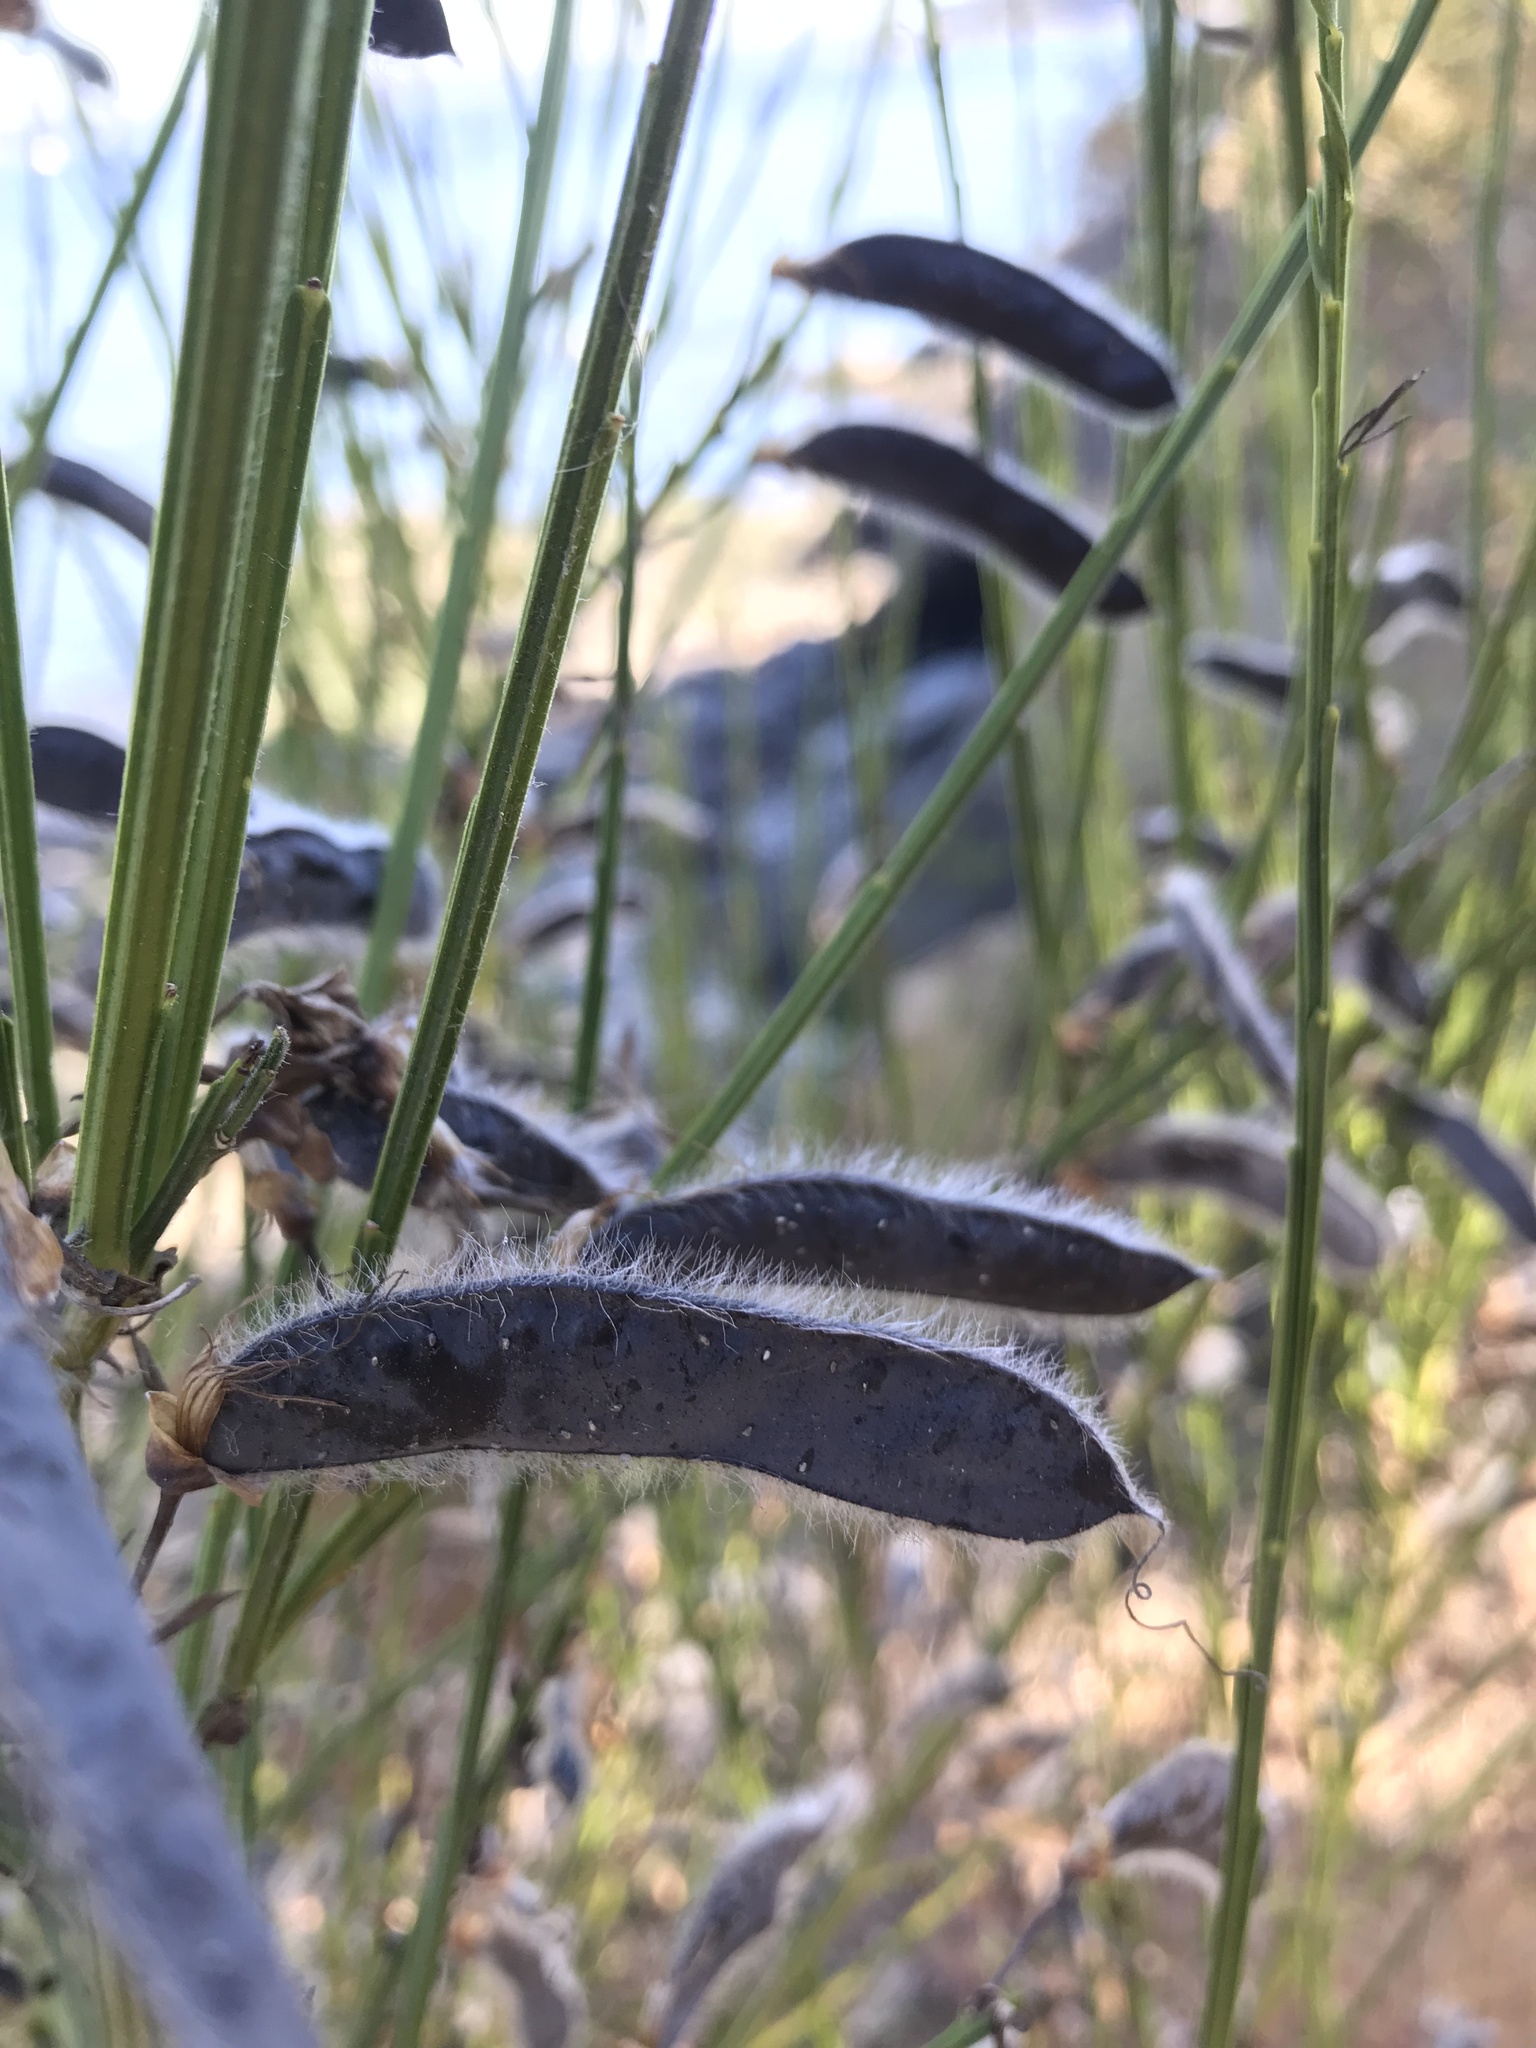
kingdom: Plantae
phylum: Tracheophyta
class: Magnoliopsida
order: Fabales
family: Fabaceae
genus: Cytisus
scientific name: Cytisus scoparius
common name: Scotch broom
